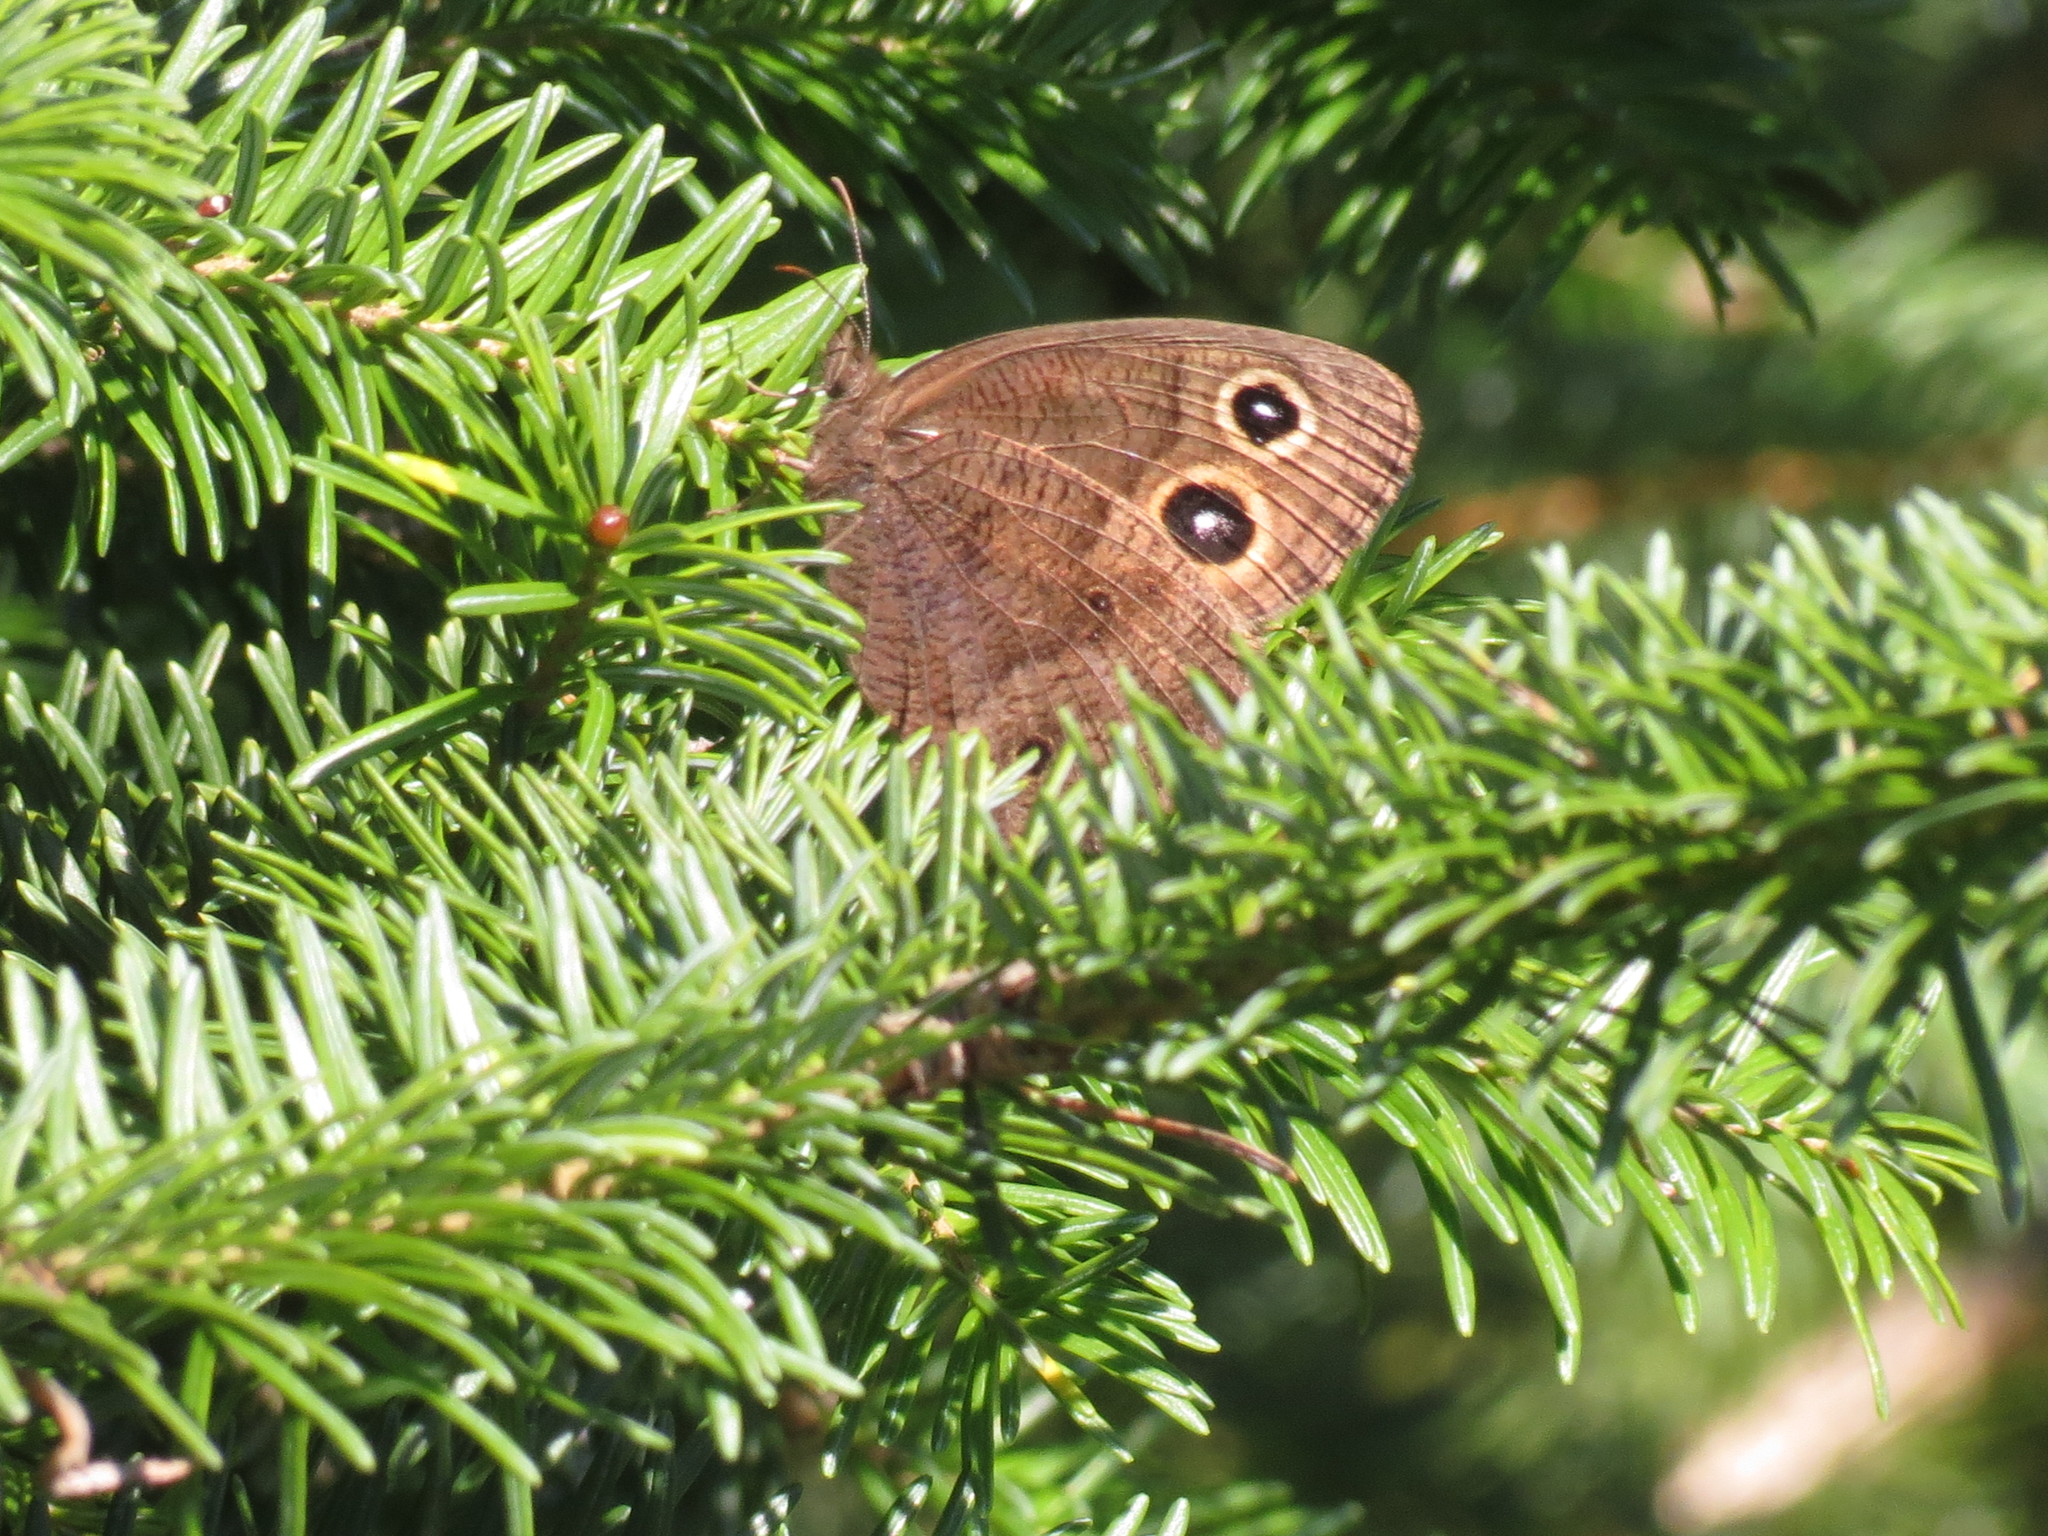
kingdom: Animalia
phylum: Arthropoda
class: Insecta
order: Lepidoptera
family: Nymphalidae
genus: Cercyonis
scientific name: Cercyonis pegala
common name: Common wood-nymph
